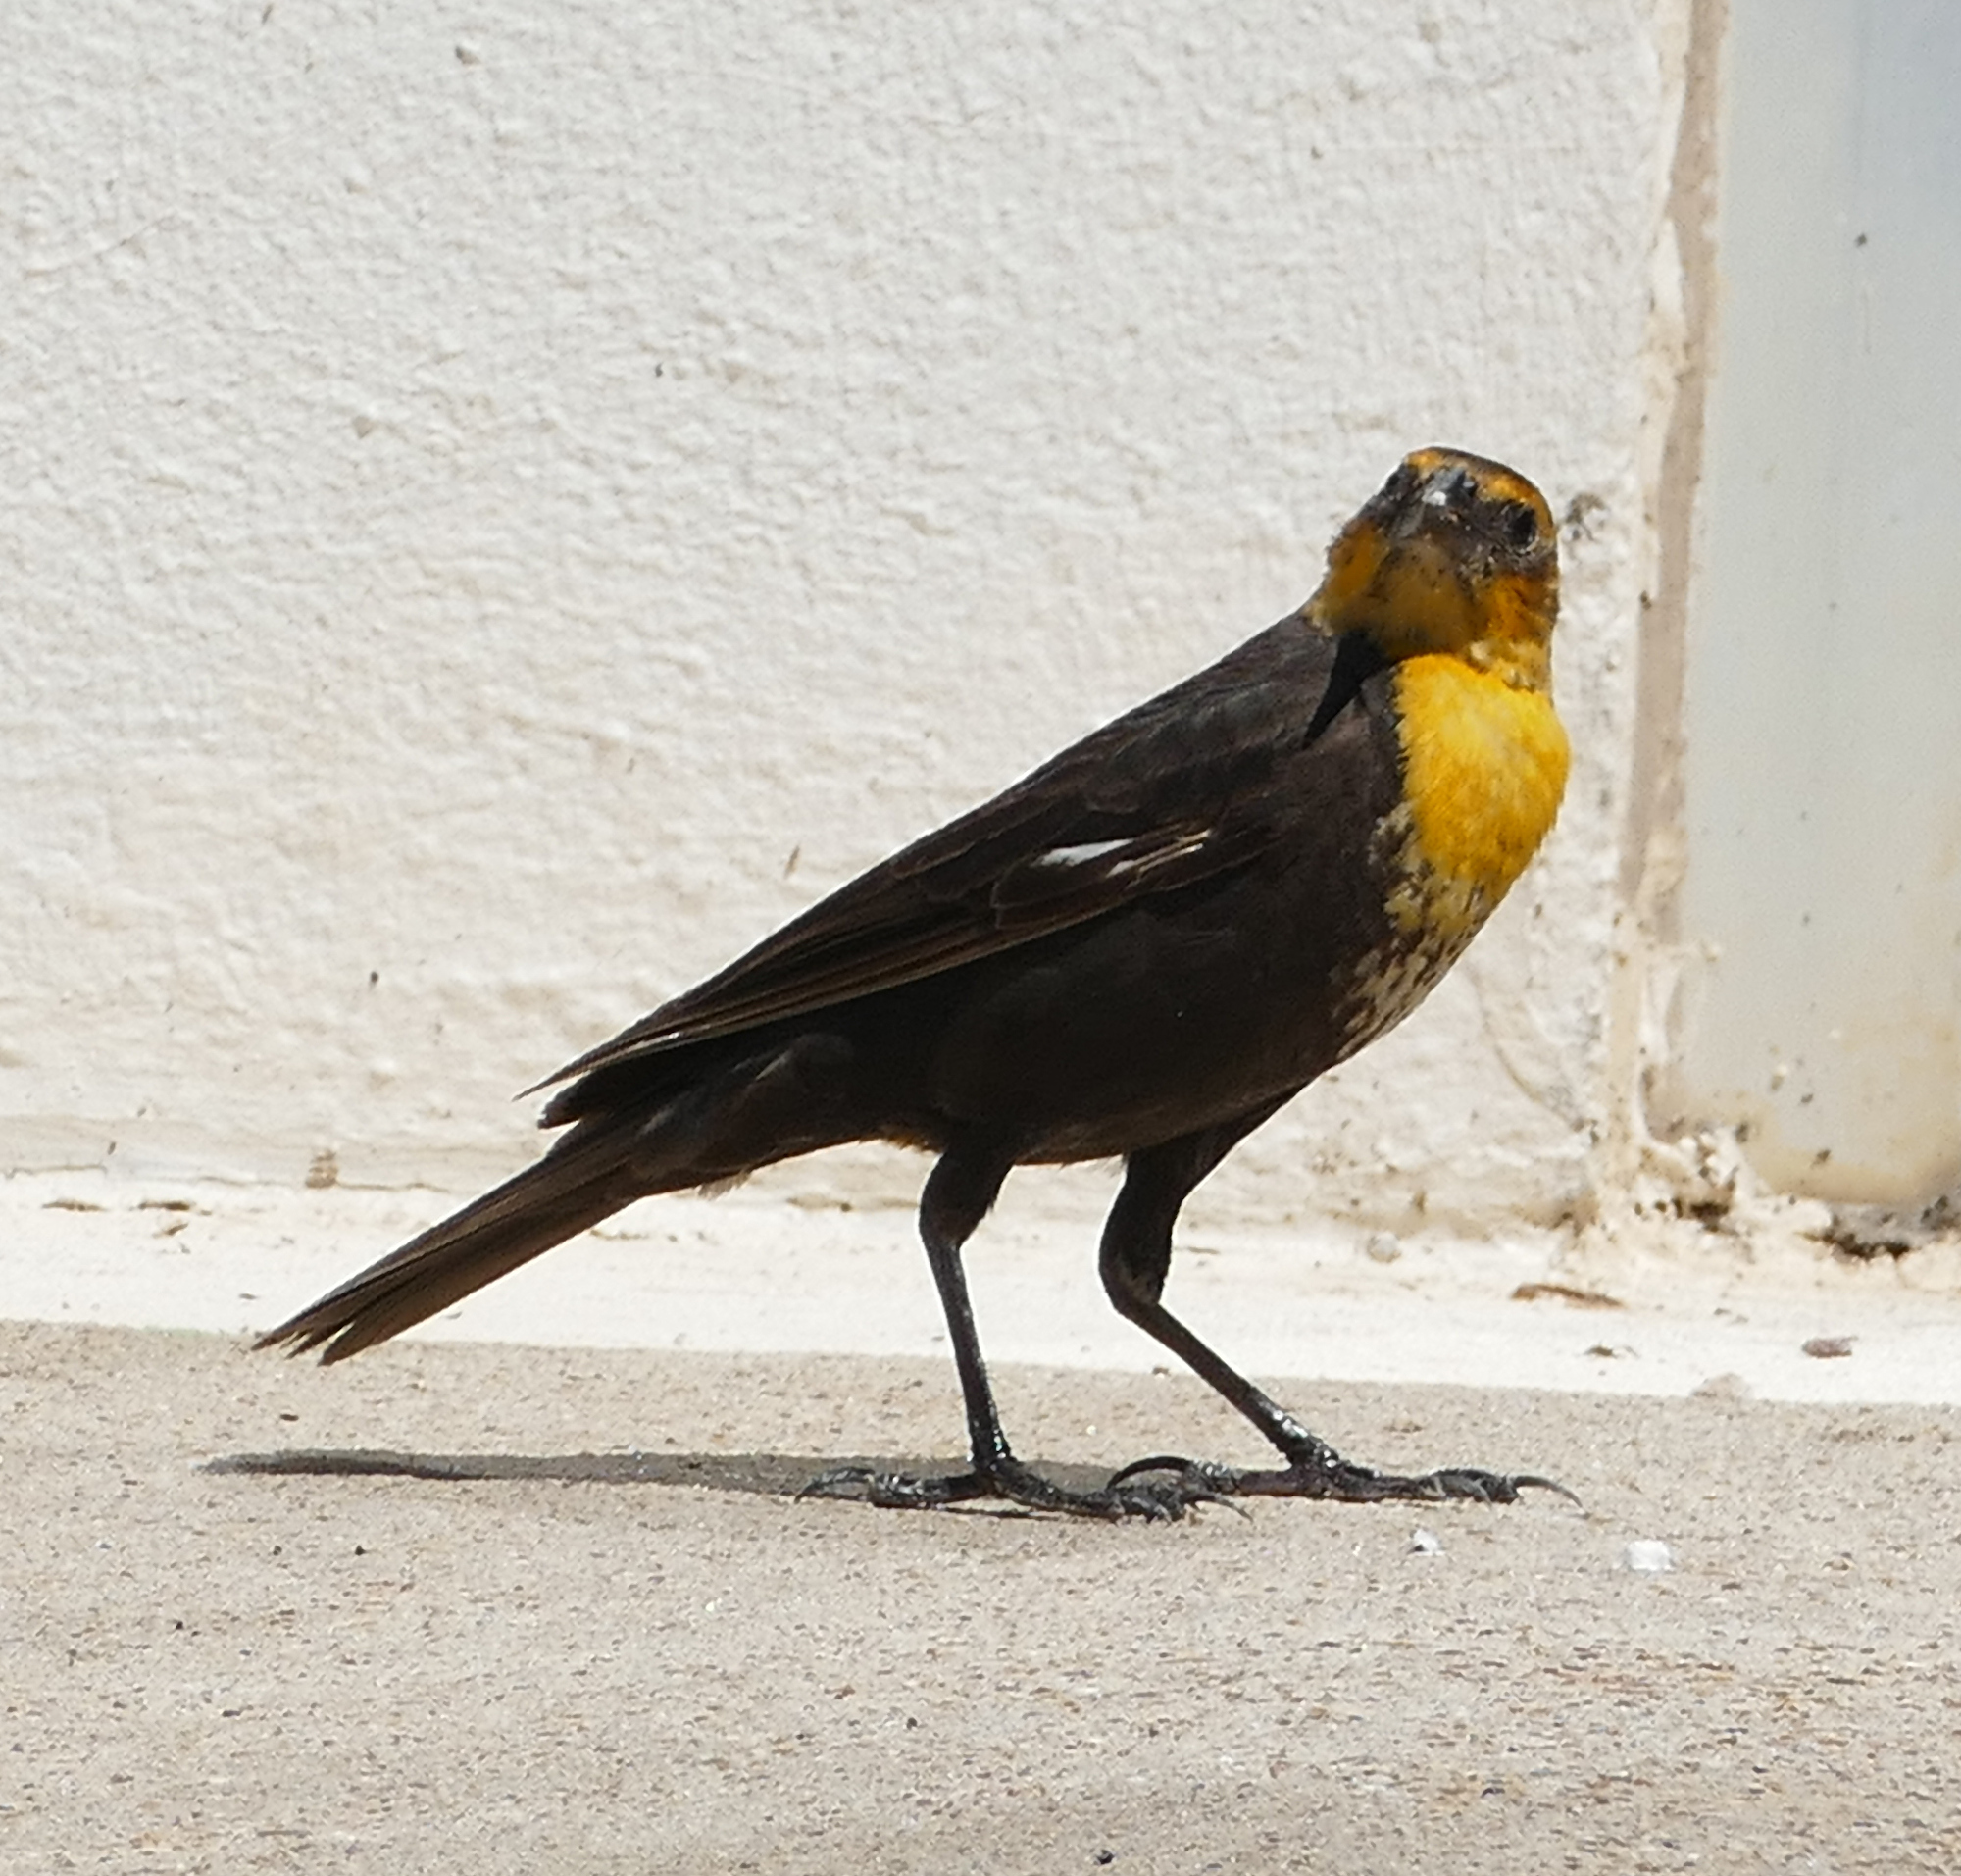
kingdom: Animalia
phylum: Chordata
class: Aves
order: Passeriformes
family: Icteridae
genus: Xanthocephalus
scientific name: Xanthocephalus xanthocephalus
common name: Yellow-headed blackbird
